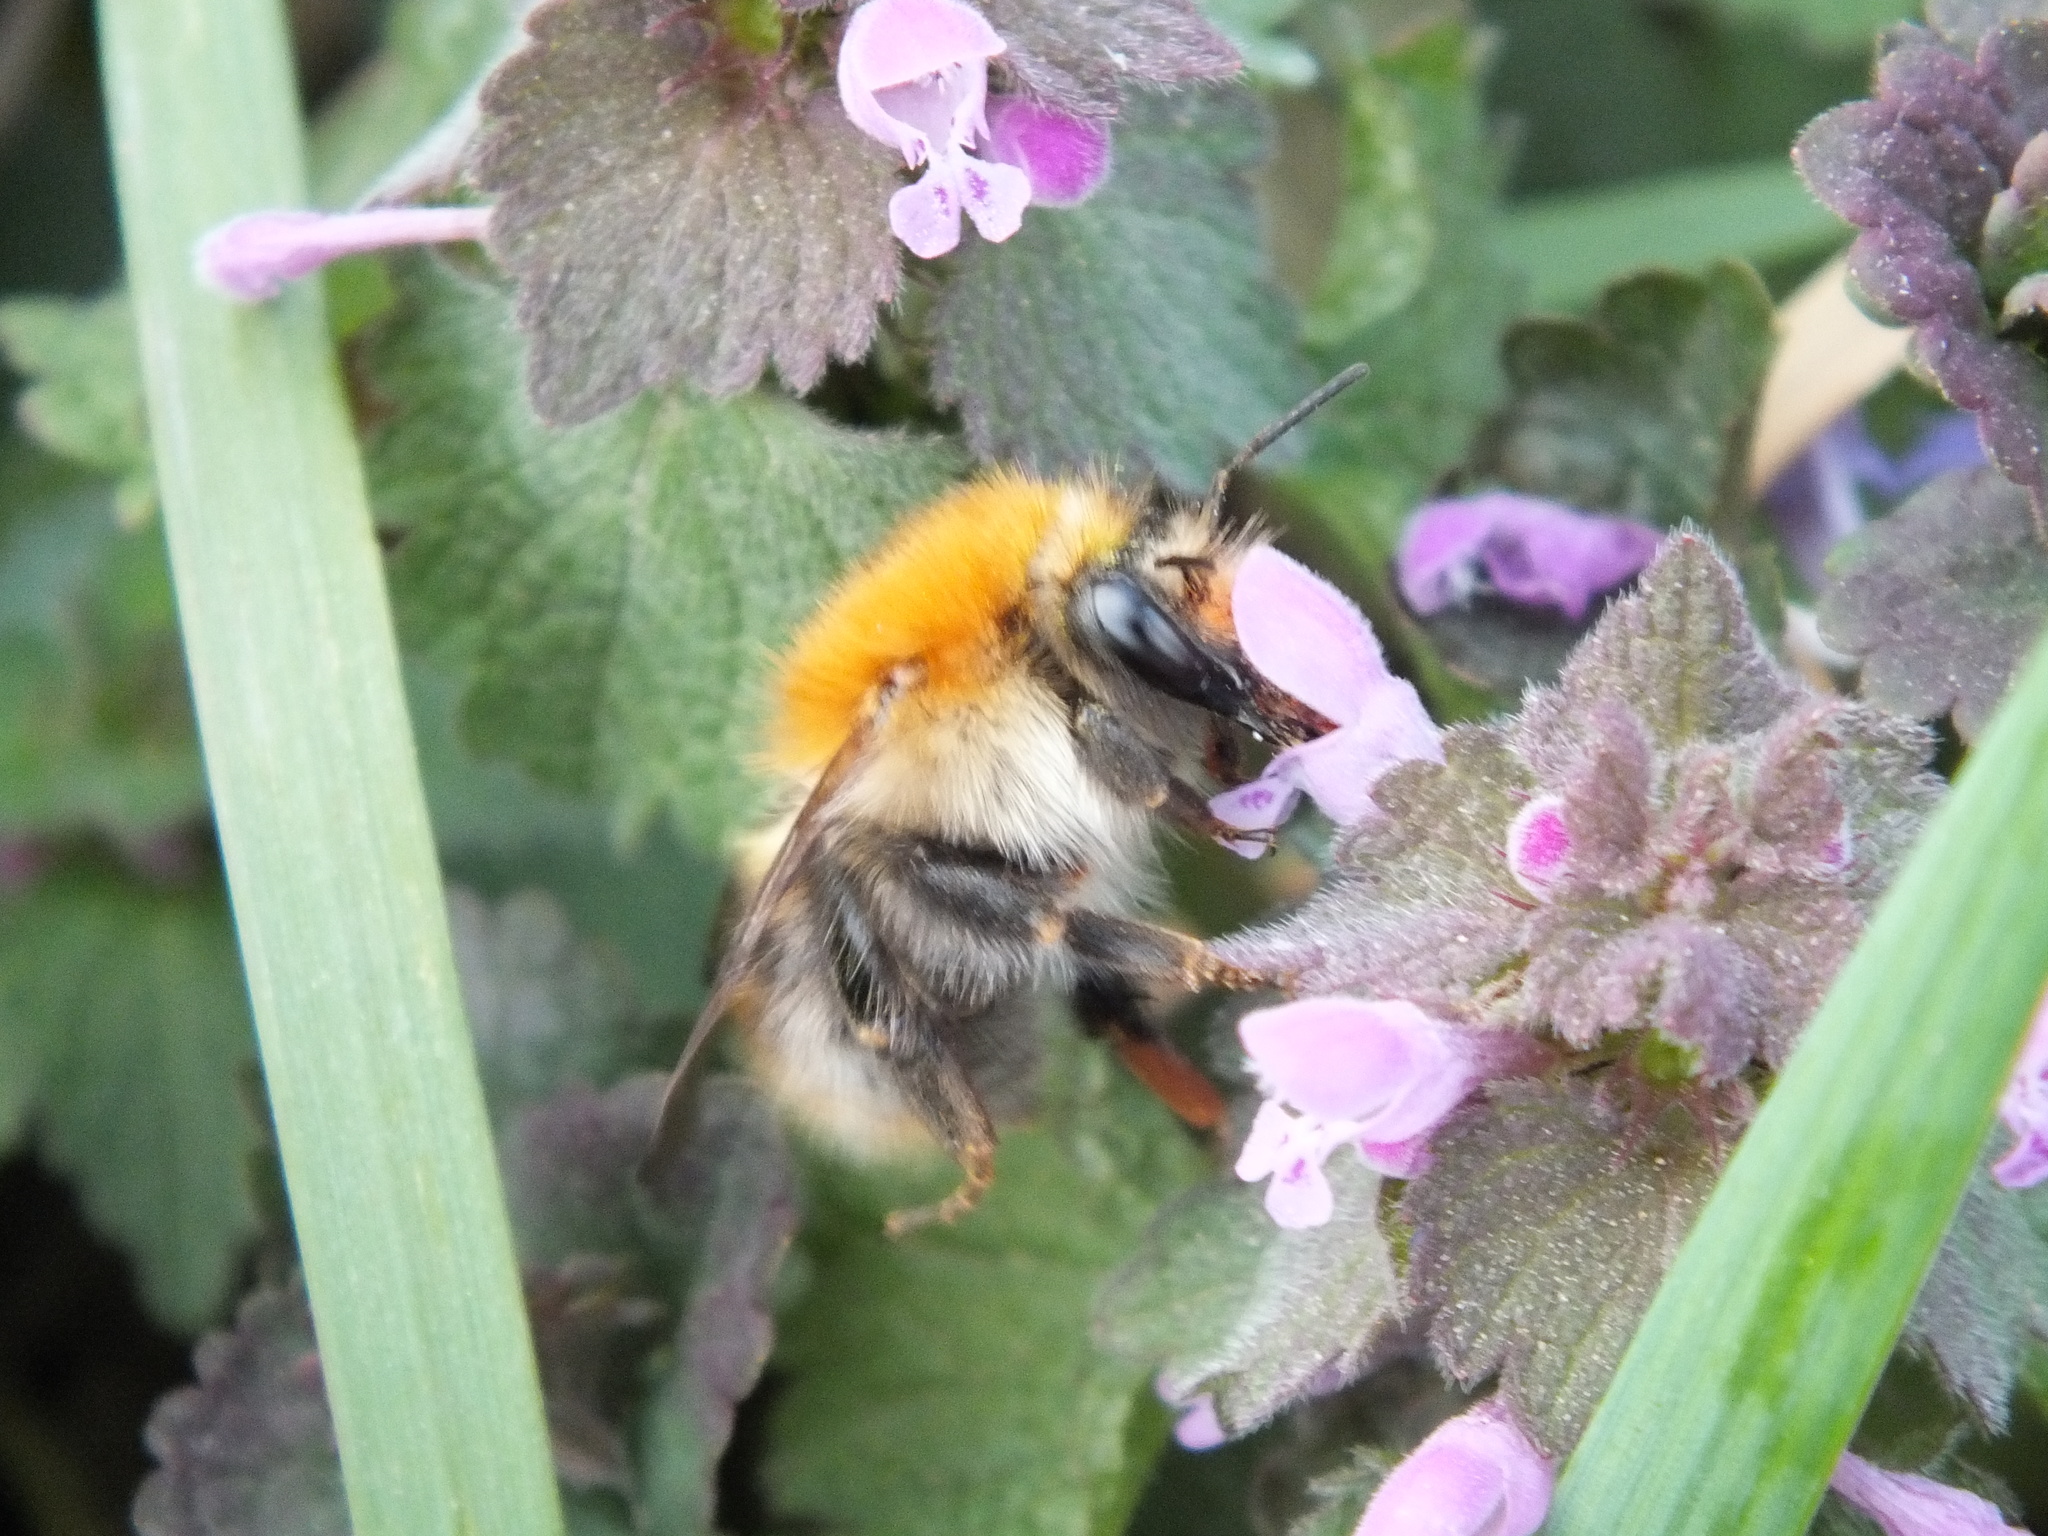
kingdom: Animalia
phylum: Arthropoda
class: Insecta
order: Hymenoptera
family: Apidae
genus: Bombus
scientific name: Bombus pascuorum
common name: Common carder bee
